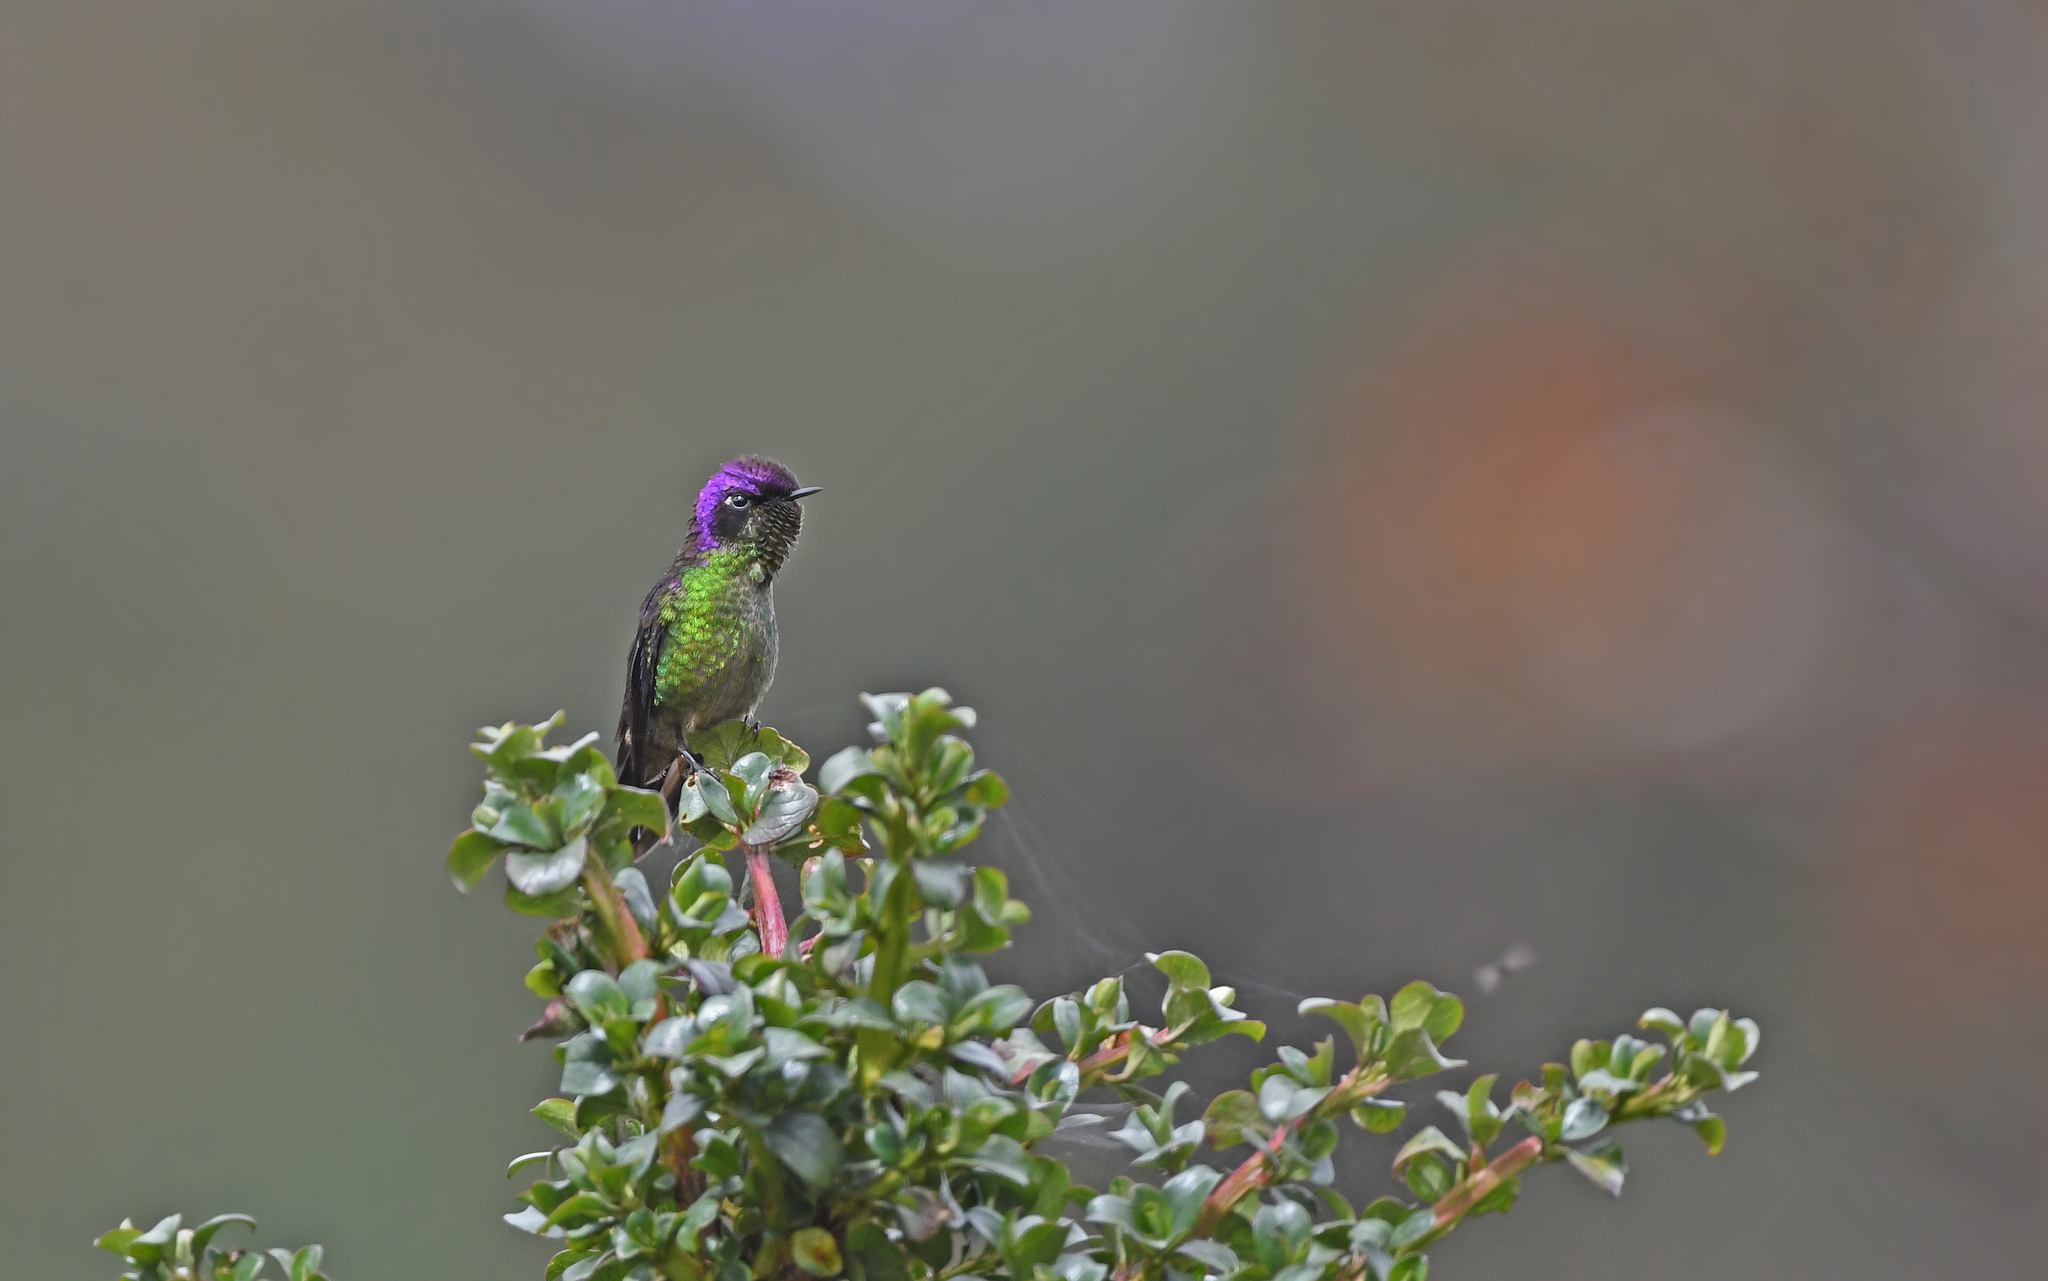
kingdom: Animalia
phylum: Chordata
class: Aves
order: Apodiformes
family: Trochilidae
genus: Ramphomicron
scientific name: Ramphomicron microrhynchum
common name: Purple-backed thornbill
